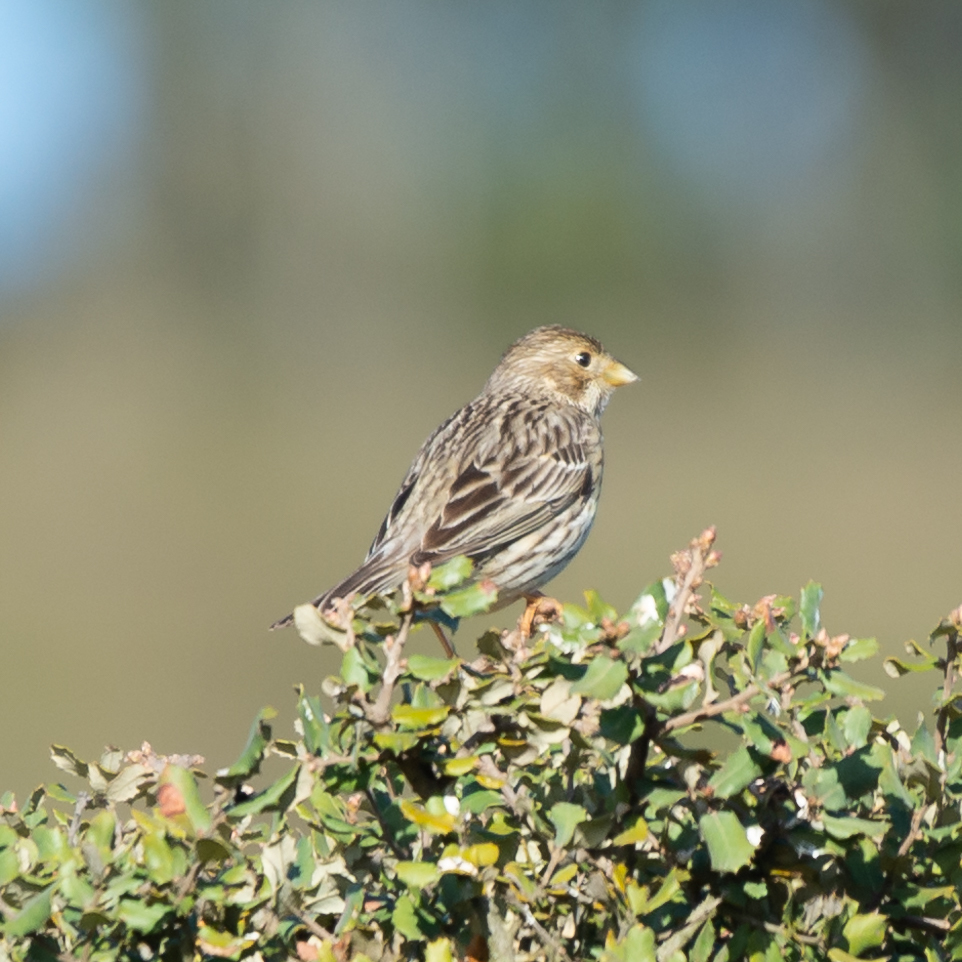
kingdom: Animalia
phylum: Chordata
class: Aves
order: Passeriformes
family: Emberizidae
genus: Emberiza
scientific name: Emberiza calandra
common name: Corn bunting
